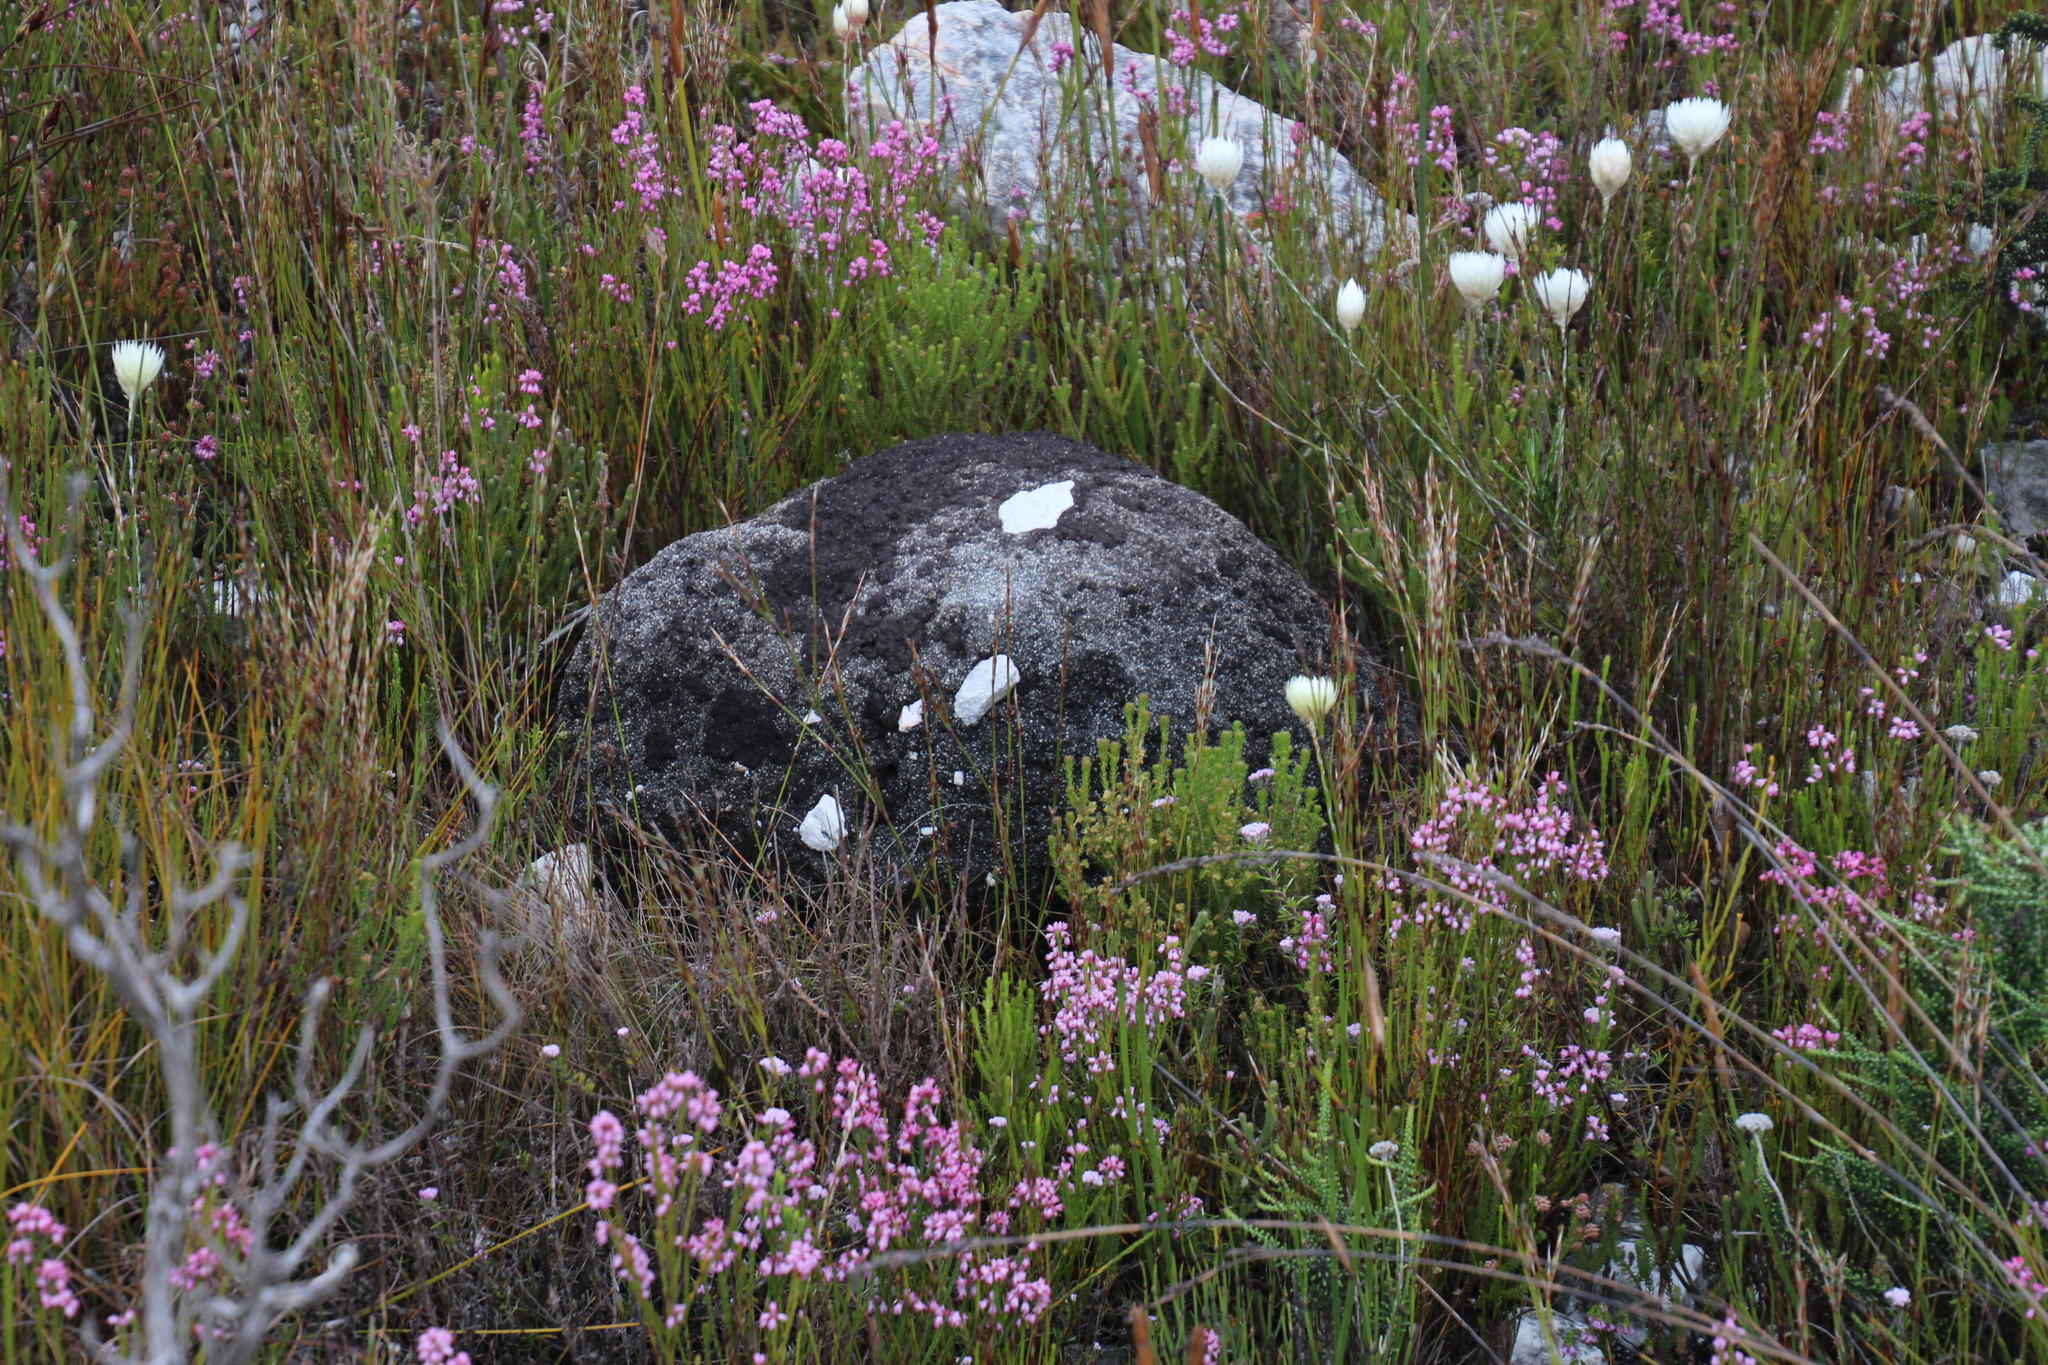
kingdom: Animalia
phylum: Arthropoda
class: Insecta
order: Blattodea
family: Termitidae
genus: Amitermes
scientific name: Amitermes hastatus
